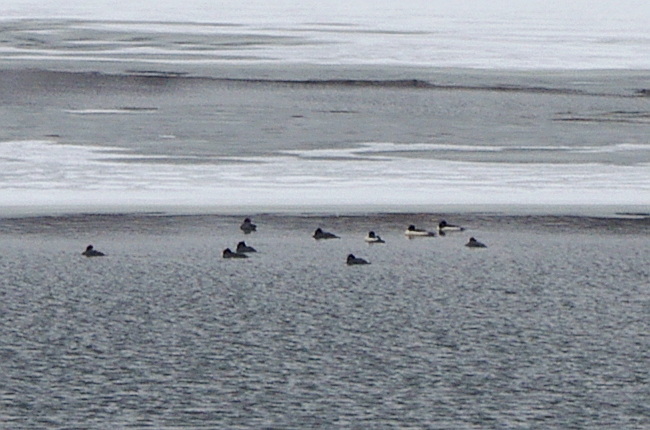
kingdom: Animalia
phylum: Chordata
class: Aves
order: Anseriformes
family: Anatidae
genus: Mergus
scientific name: Mergus merganser
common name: Common merganser
